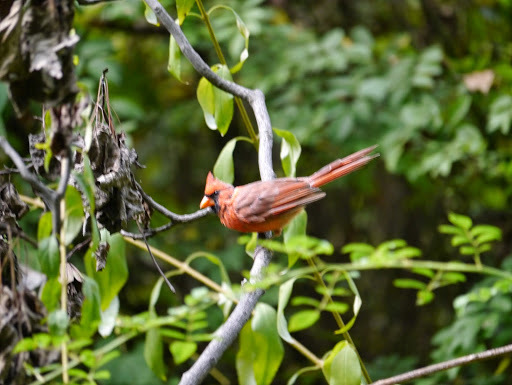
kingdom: Animalia
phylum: Chordata
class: Aves
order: Passeriformes
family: Cardinalidae
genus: Cardinalis
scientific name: Cardinalis cardinalis
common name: Northern cardinal
